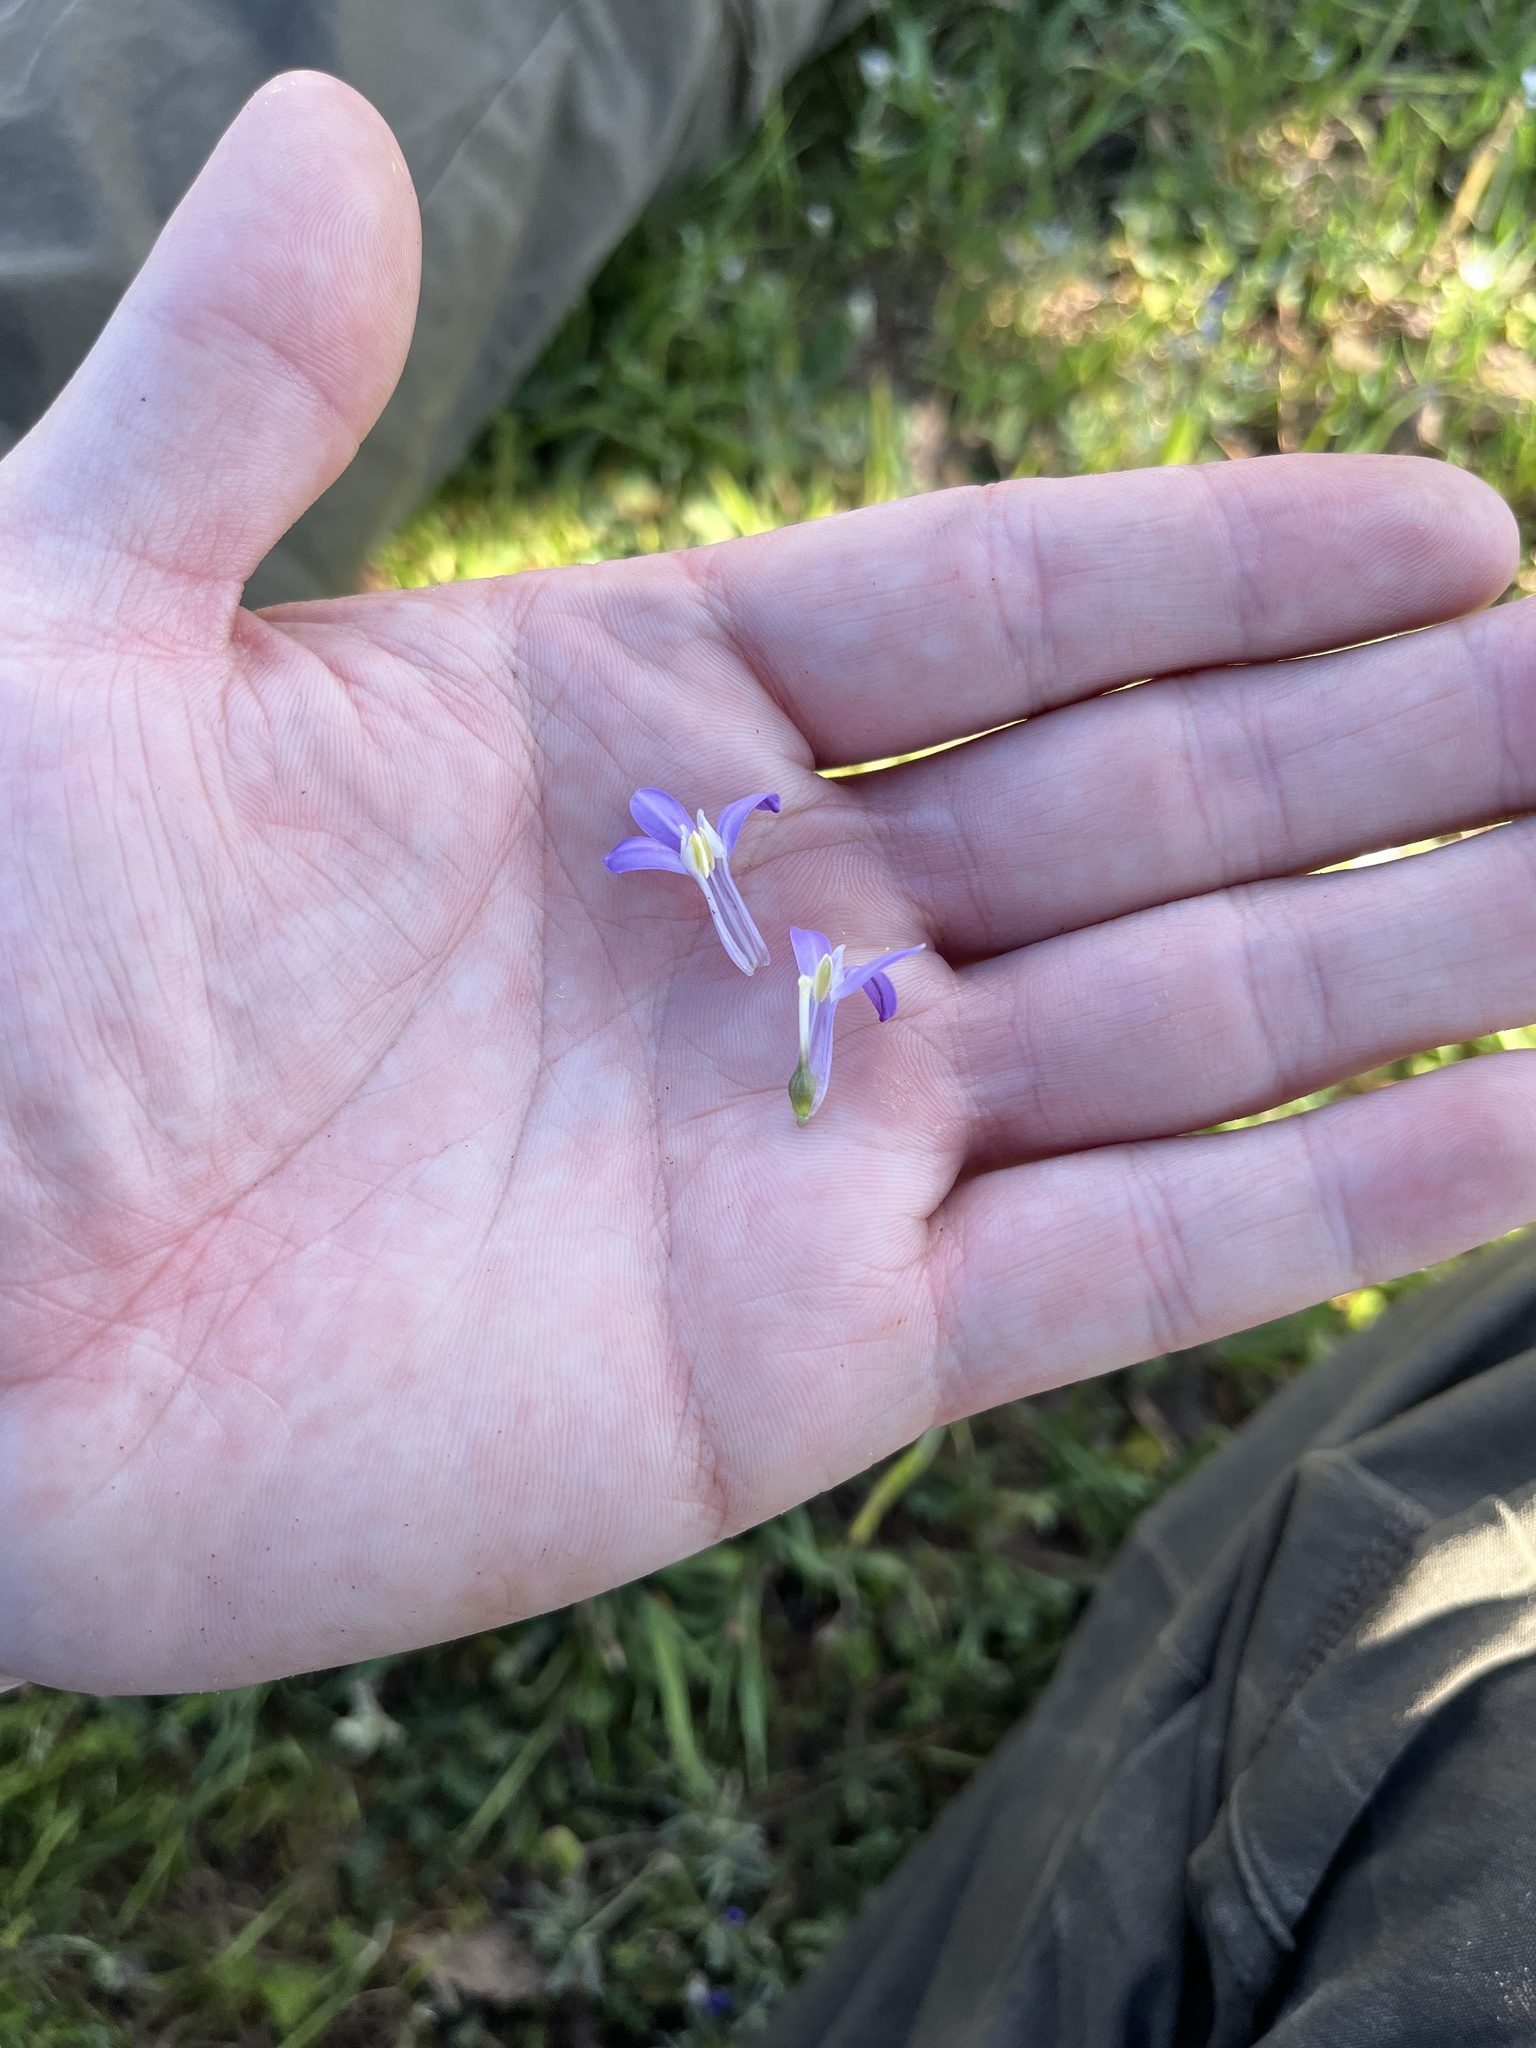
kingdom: Plantae
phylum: Tracheophyta
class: Liliopsida
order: Asparagales
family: Asparagaceae
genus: Dichelostemma
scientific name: Dichelostemma multiflorum
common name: Round-tooth ookow
